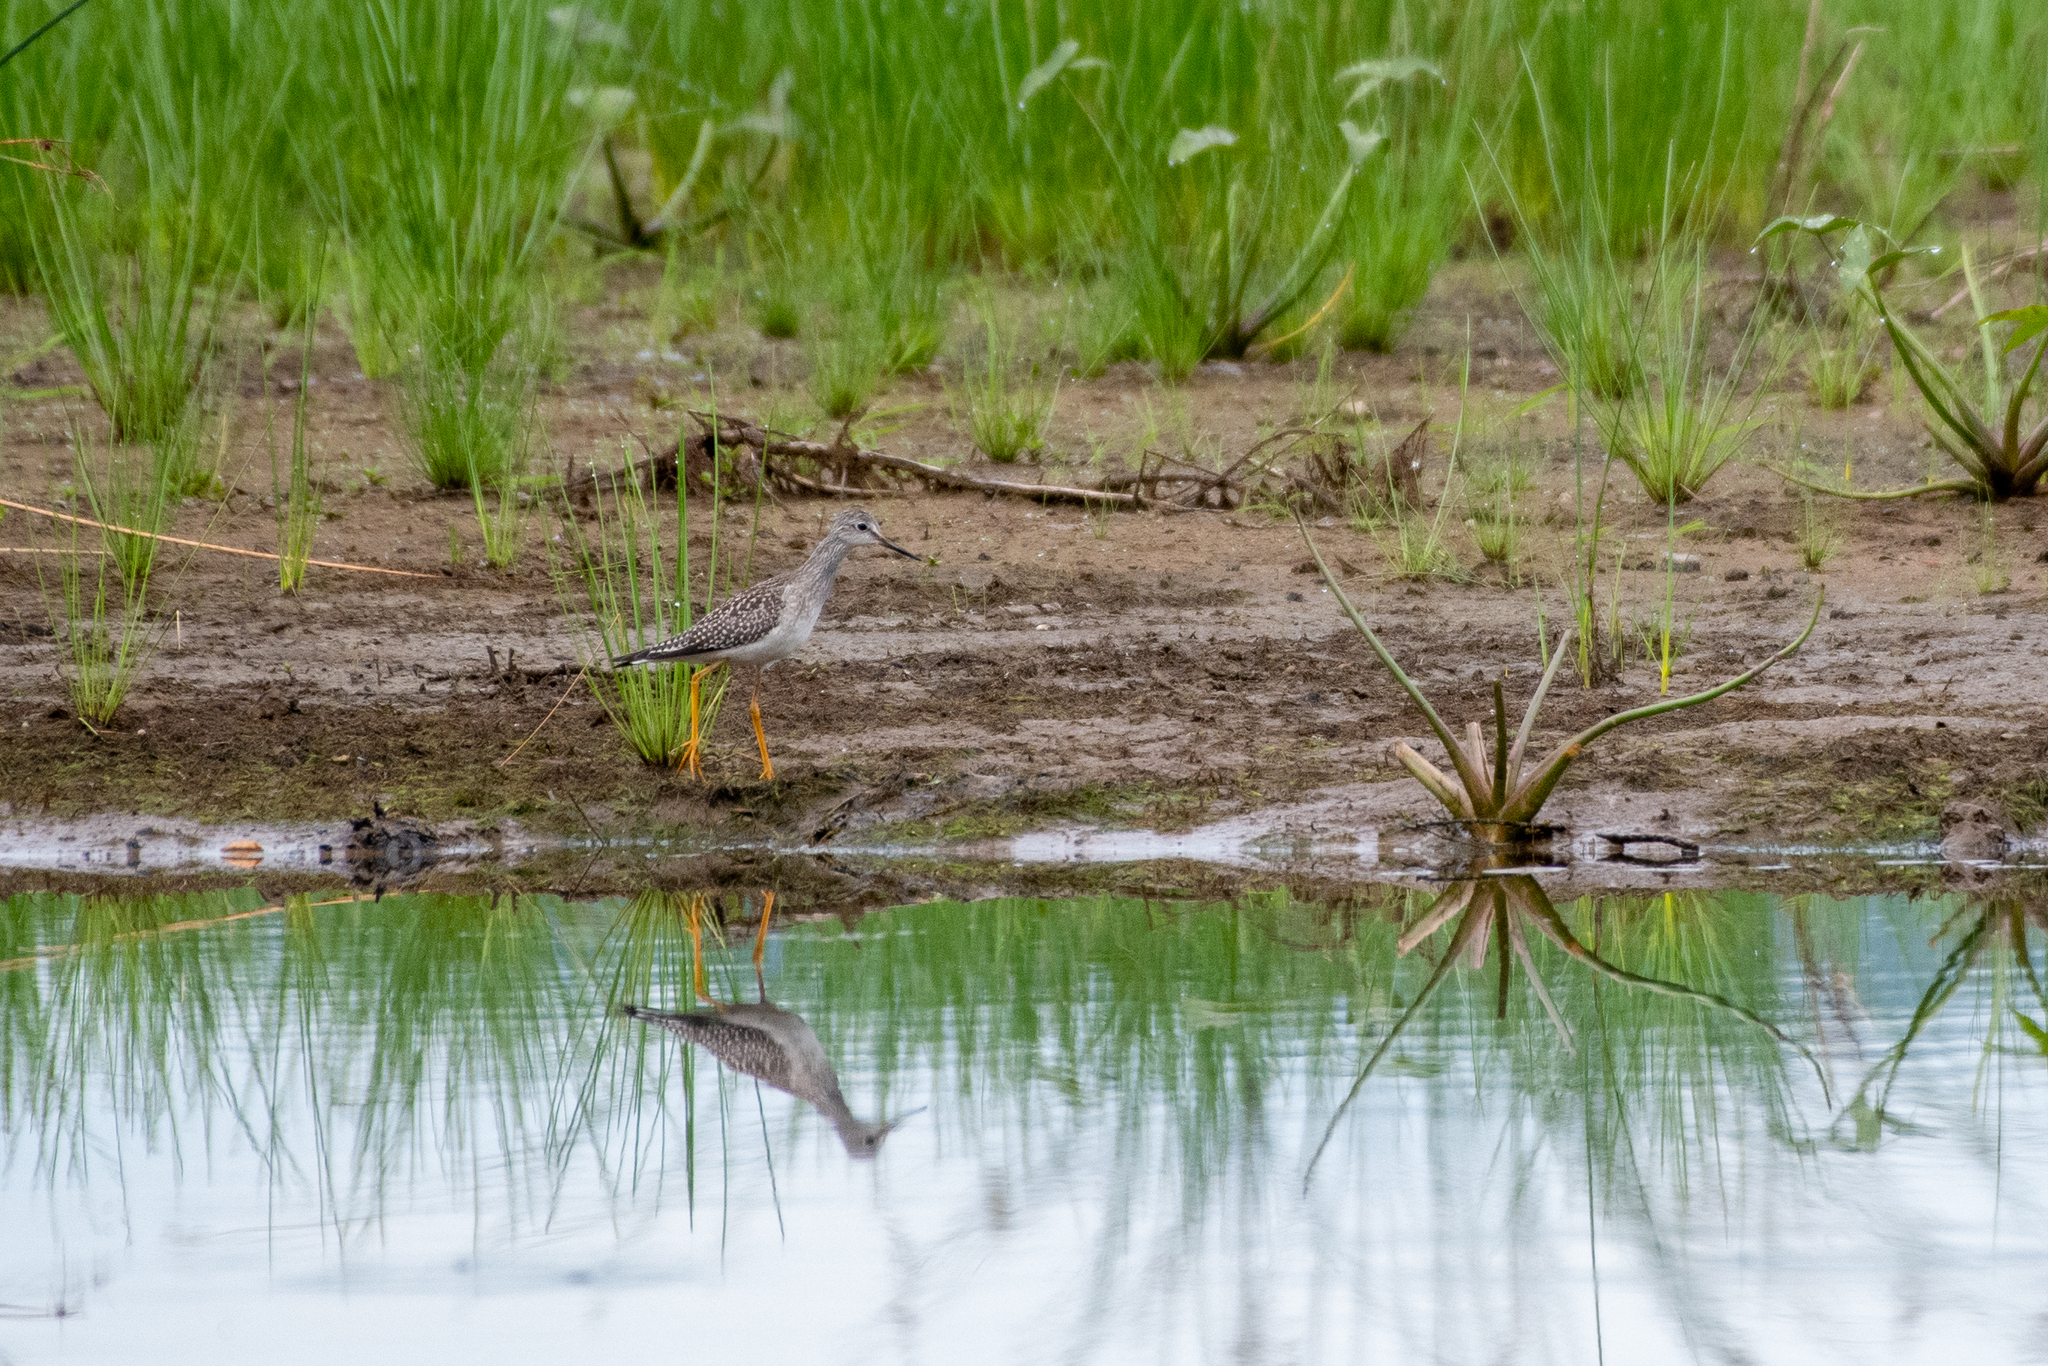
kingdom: Animalia
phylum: Chordata
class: Aves
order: Charadriiformes
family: Scolopacidae
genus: Tringa
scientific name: Tringa flavipes
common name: Lesser yellowlegs
